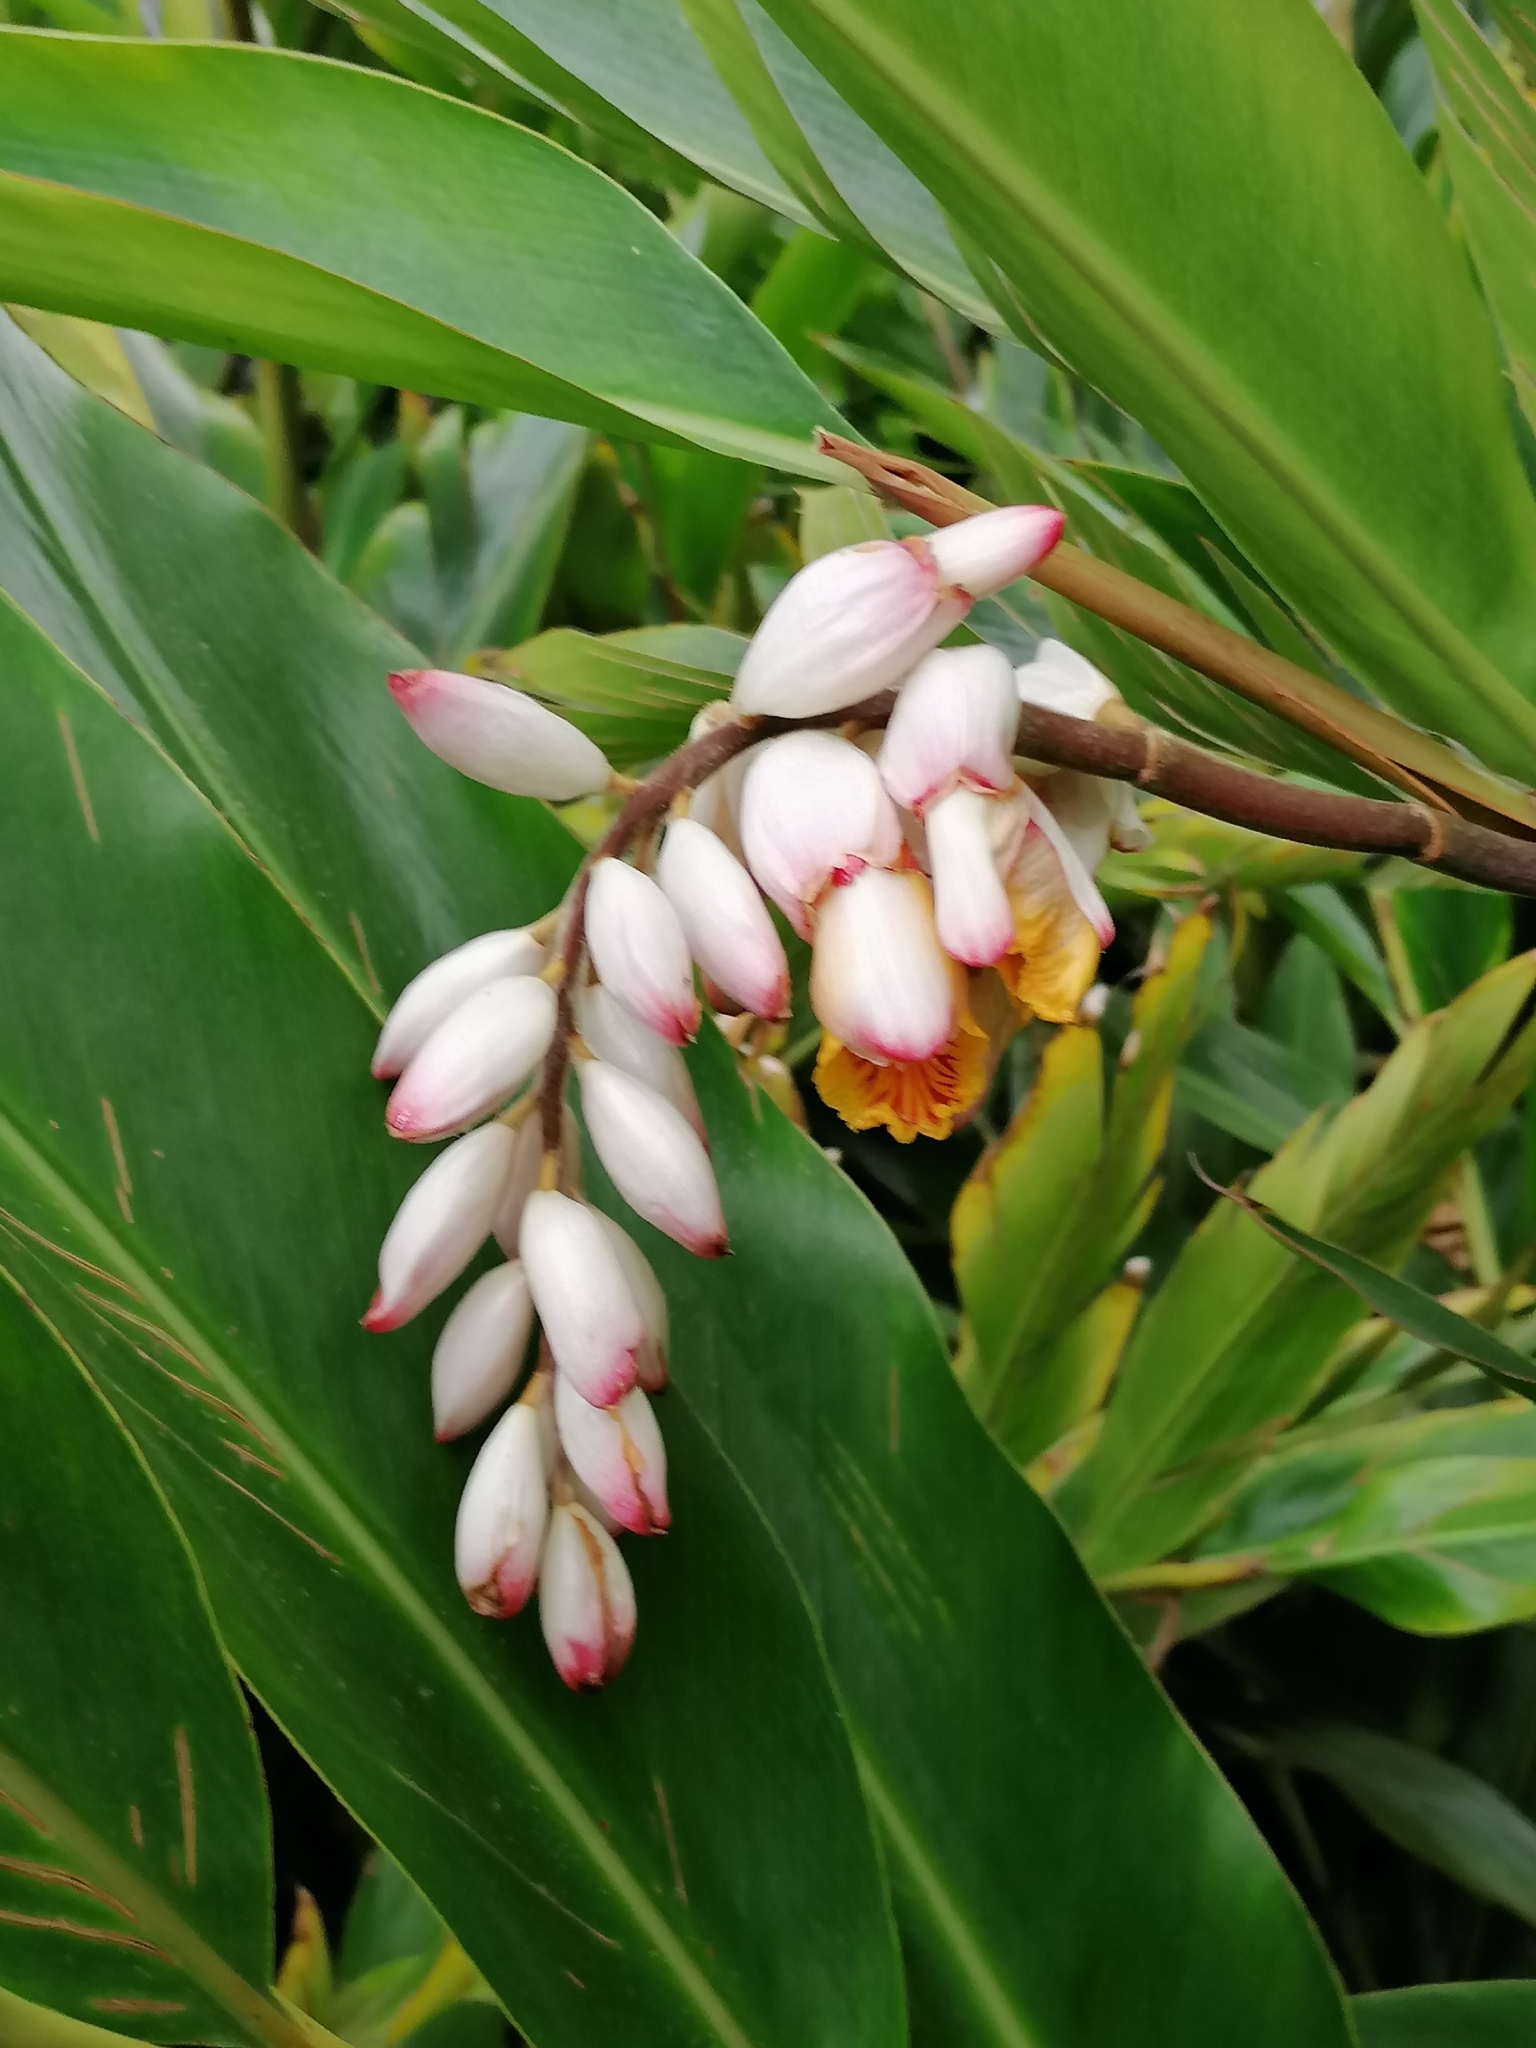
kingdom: Plantae
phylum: Tracheophyta
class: Liliopsida
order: Zingiberales
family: Zingiberaceae
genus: Alpinia
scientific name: Alpinia zerumbet
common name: Shellplant
